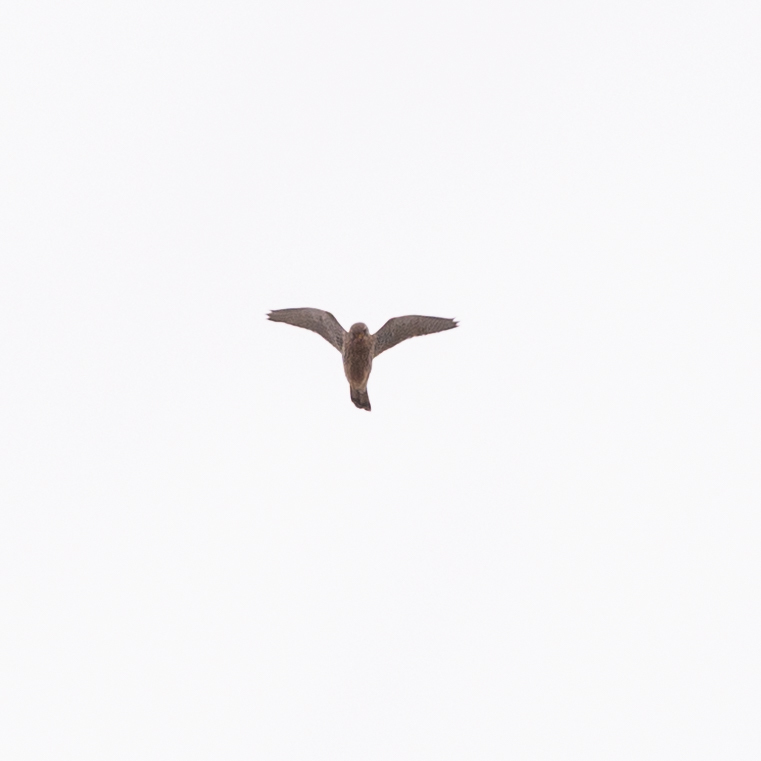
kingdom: Animalia
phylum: Chordata
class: Aves
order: Falconiformes
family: Falconidae
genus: Falco
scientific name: Falco tinnunculus
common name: Common kestrel
